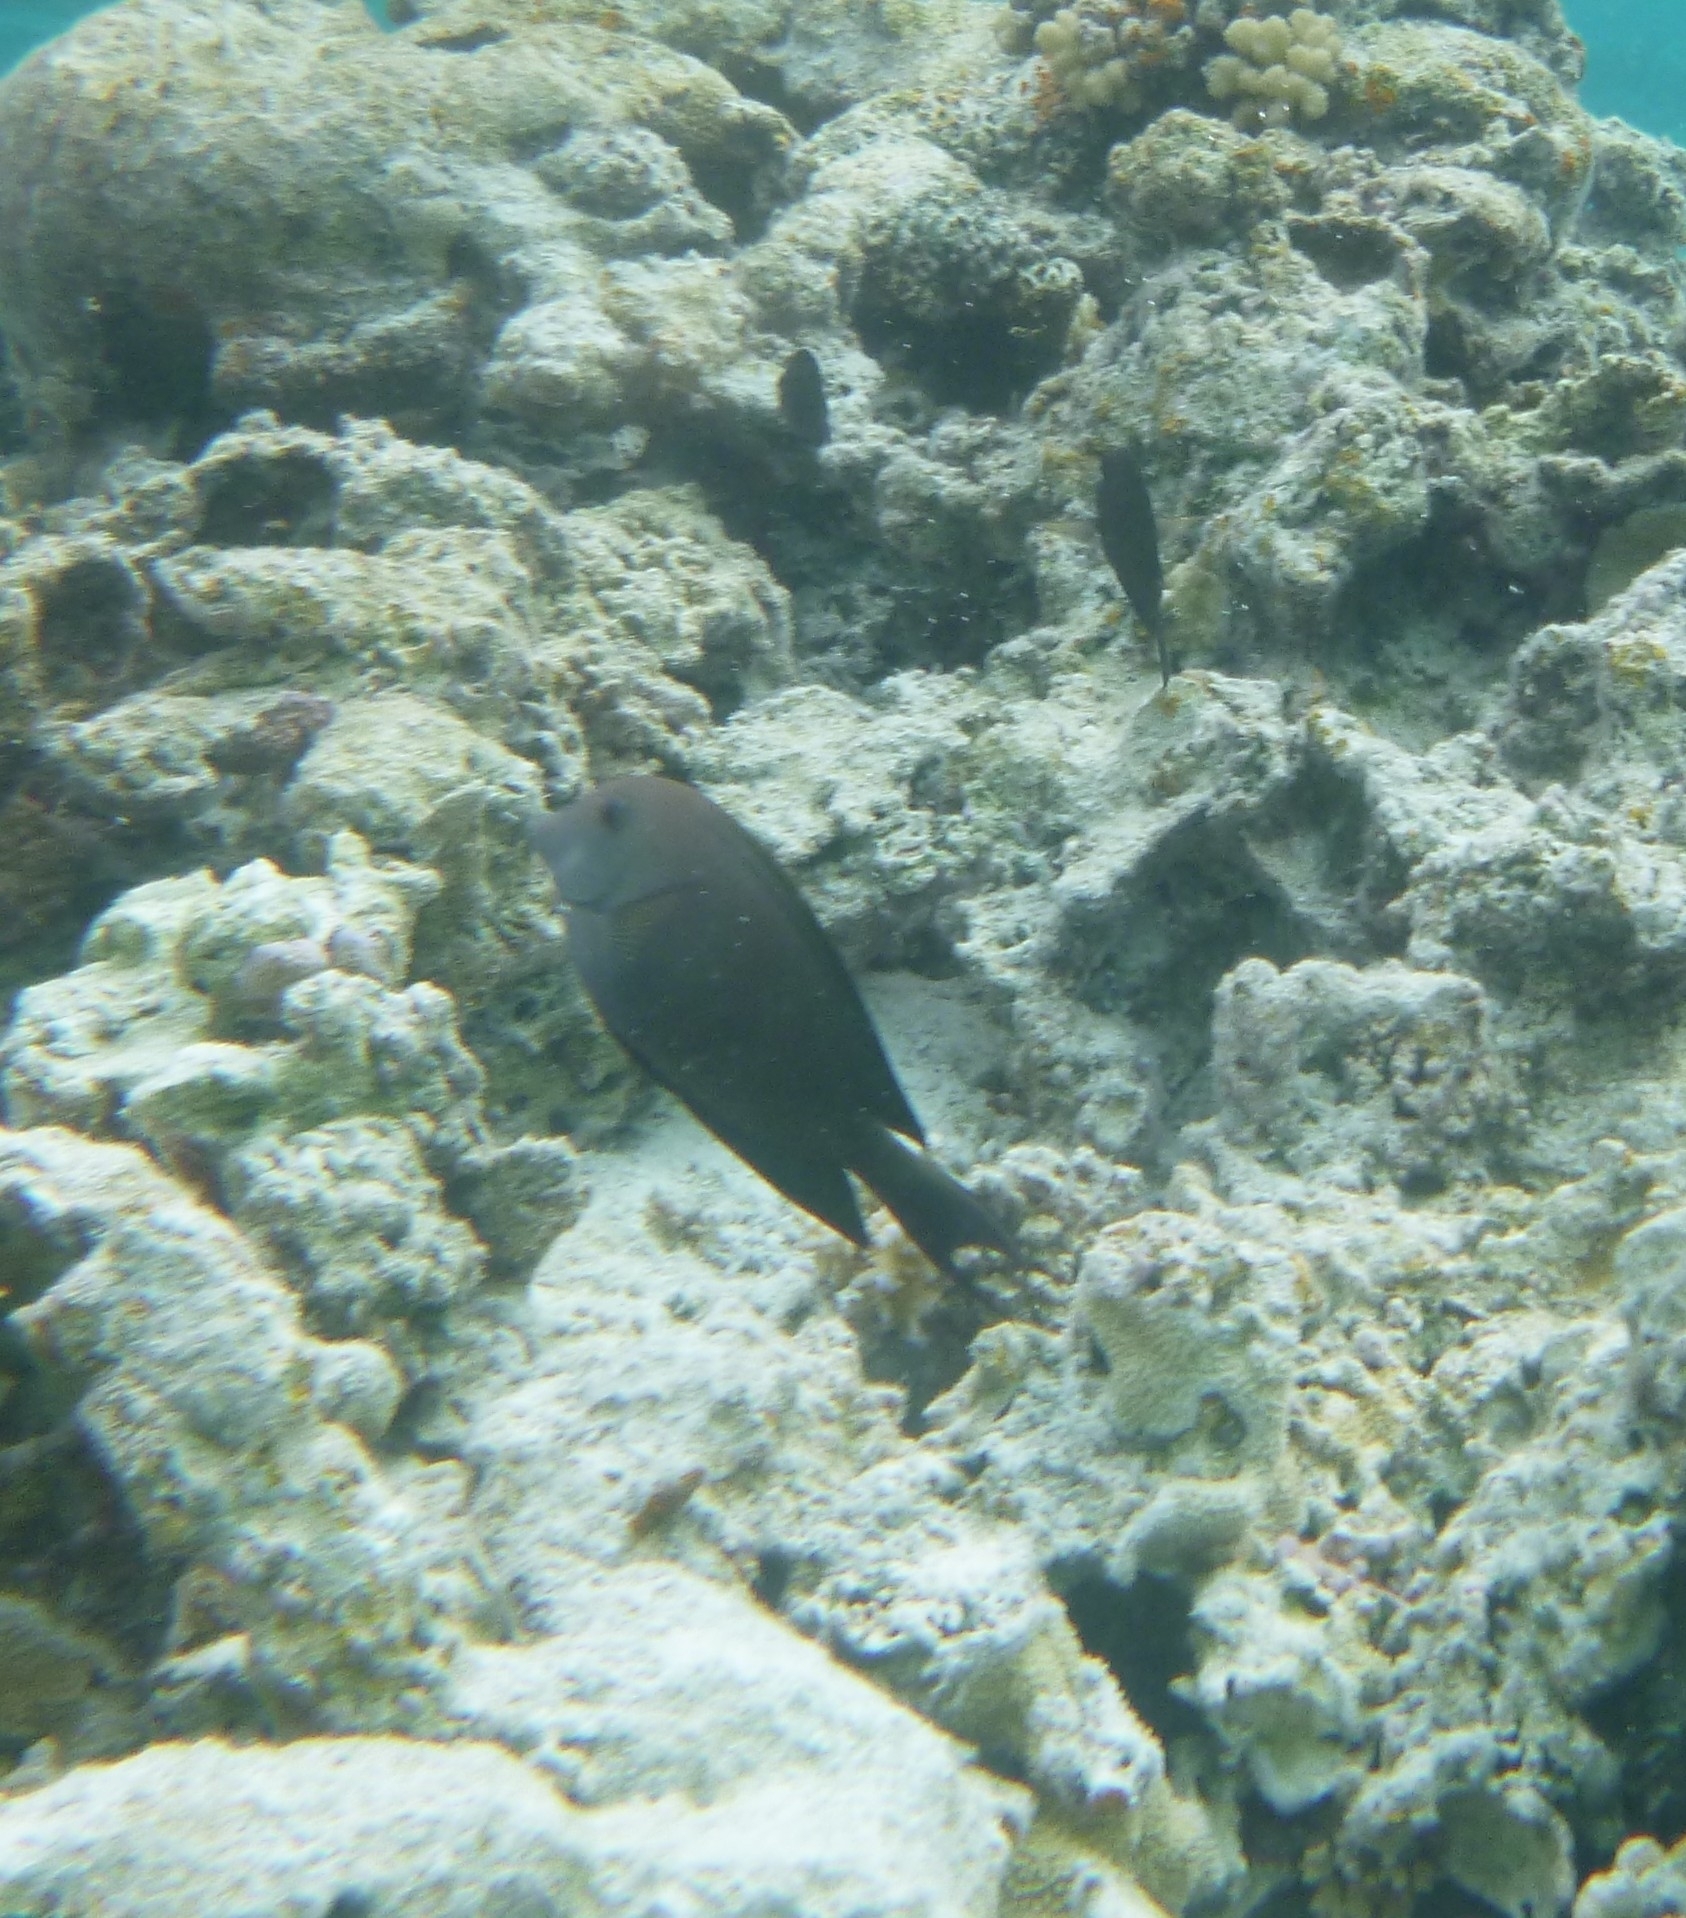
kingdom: Animalia
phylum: Chordata
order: Perciformes
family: Acanthuridae
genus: Ctenochaetus
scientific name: Ctenochaetus striatus
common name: Bristle-toothed surgeonfish
